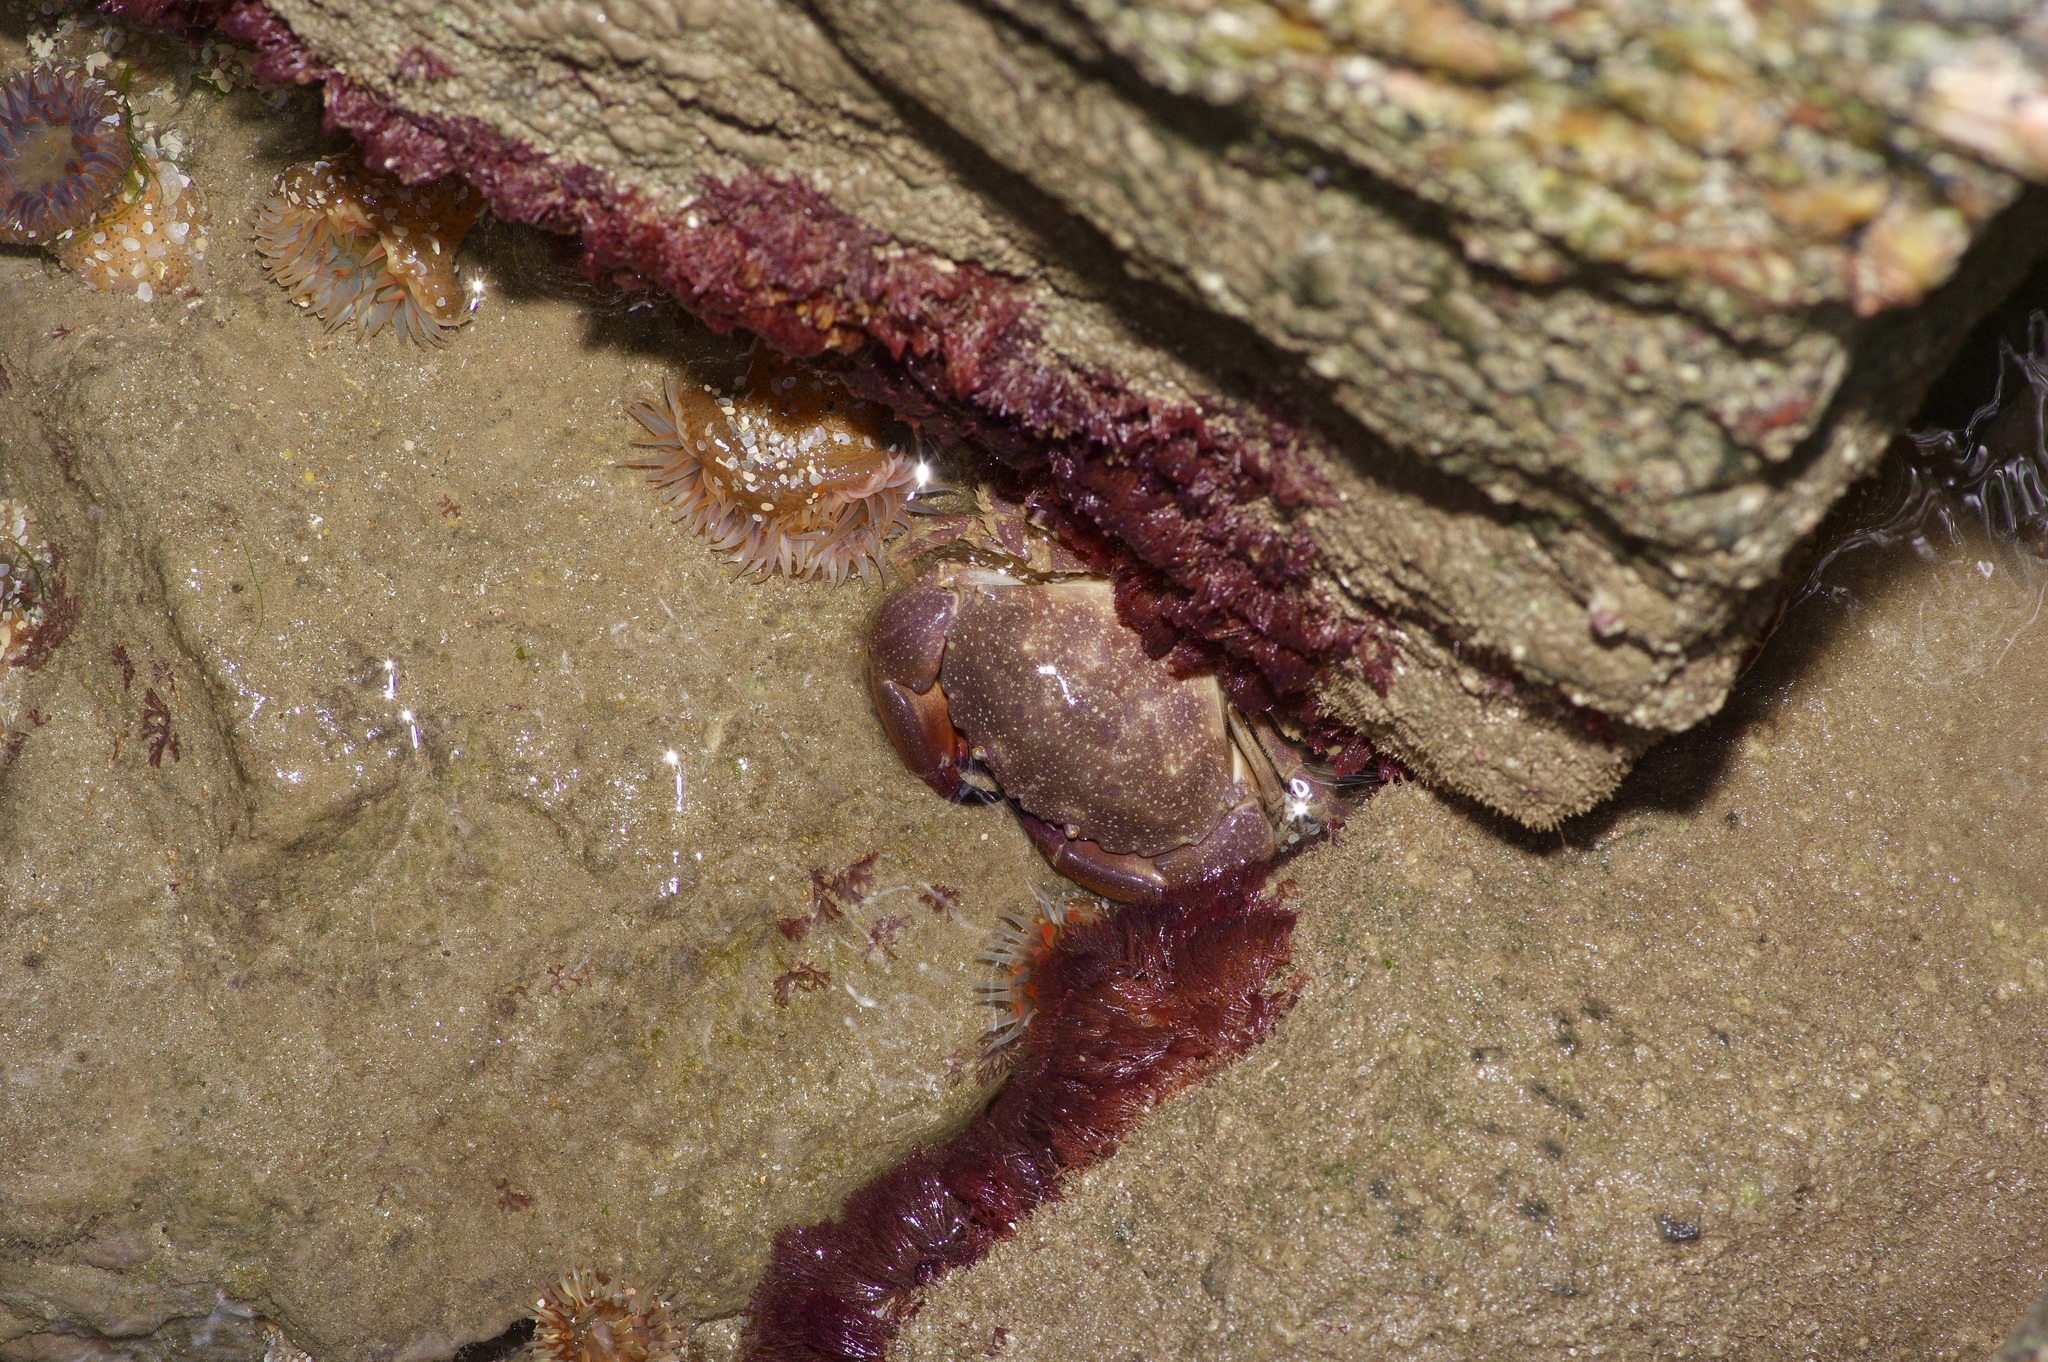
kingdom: Animalia
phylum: Arthropoda
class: Malacostraca
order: Decapoda
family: Menippidae
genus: Menippe
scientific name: Menippe adina
